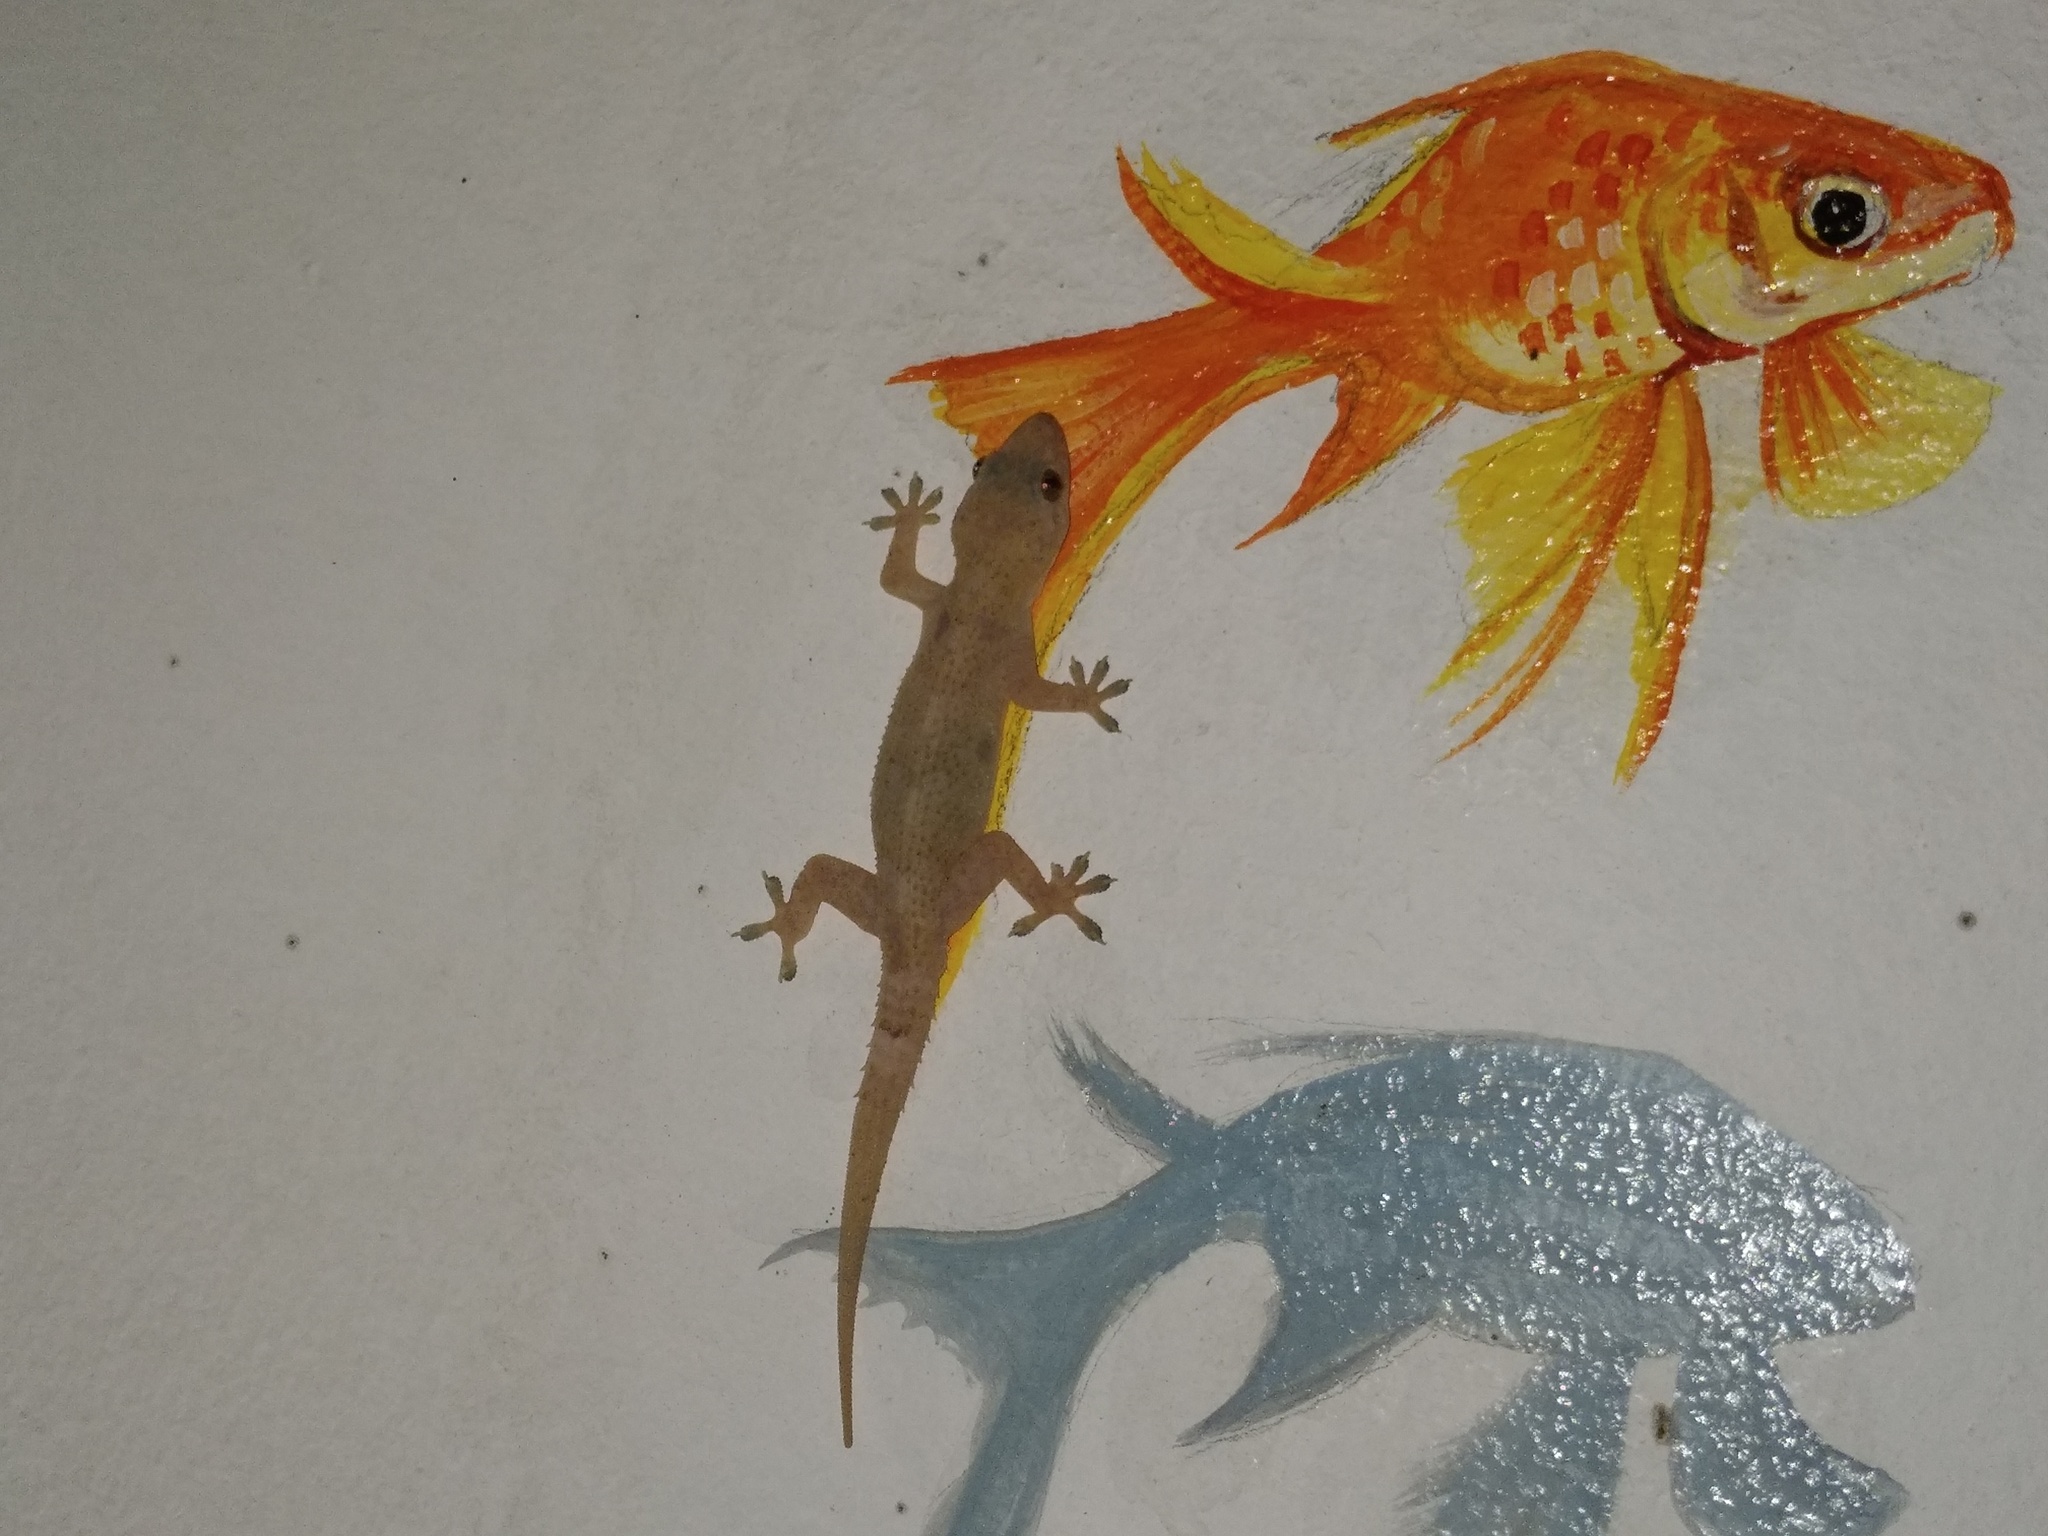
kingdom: Animalia
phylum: Chordata
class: Squamata
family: Gekkonidae
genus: Hemidactylus
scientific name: Hemidactylus mabouia
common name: House gecko
